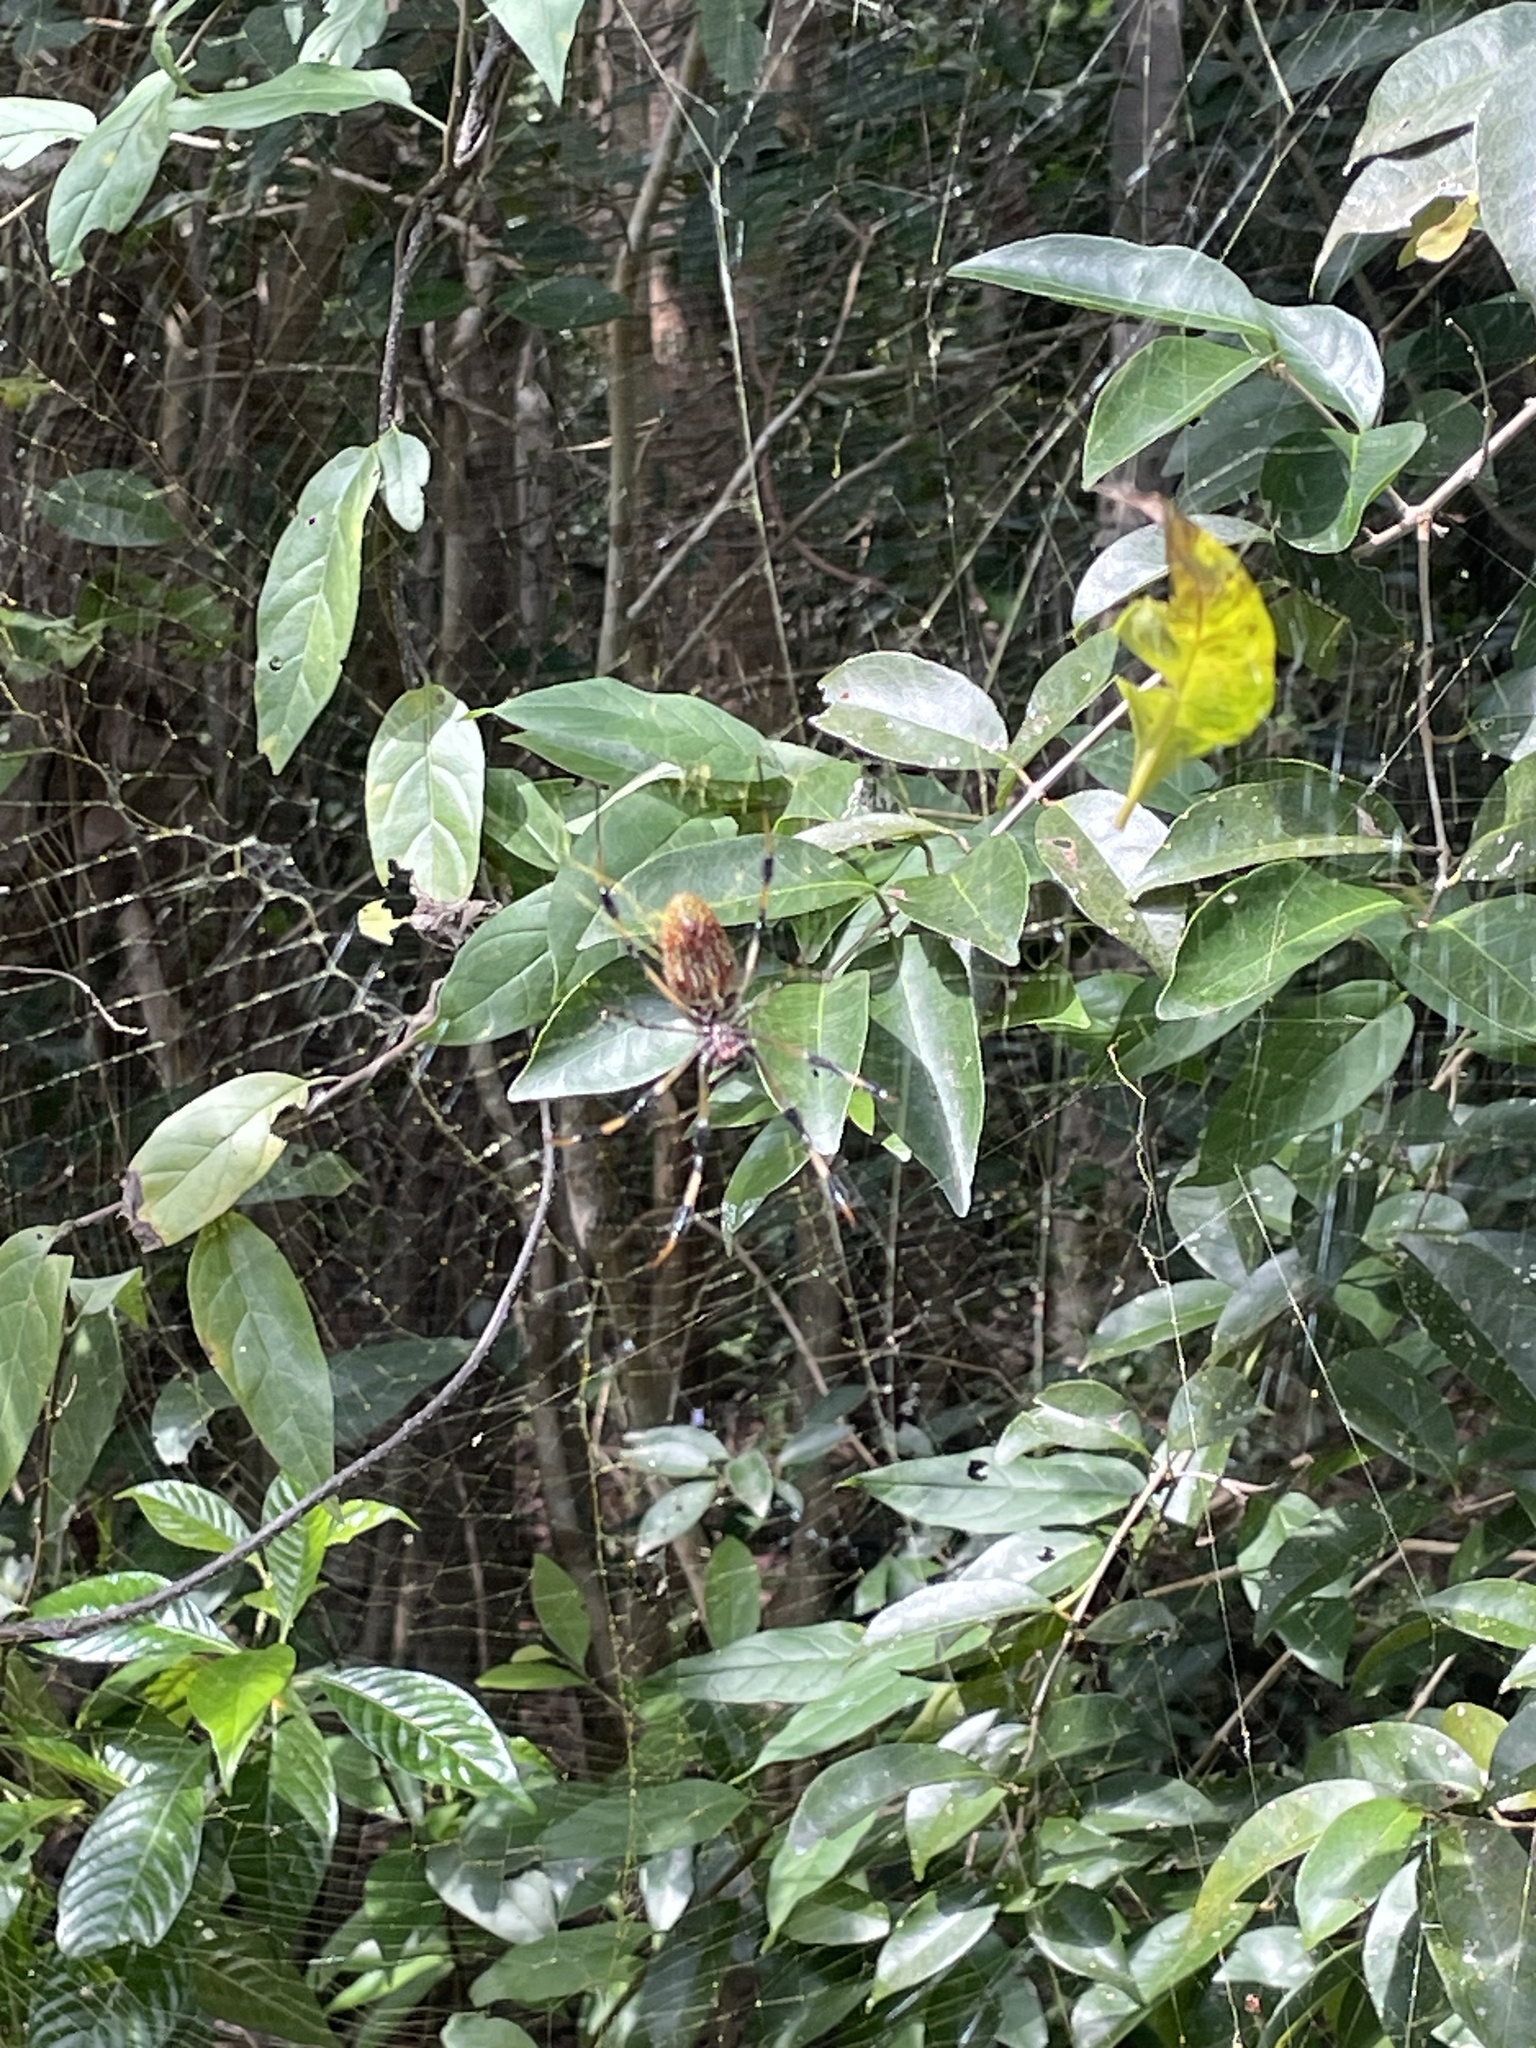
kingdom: Animalia
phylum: Arthropoda
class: Arachnida
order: Araneae
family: Araneidae
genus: Trichonephila
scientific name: Trichonephila clavipes
